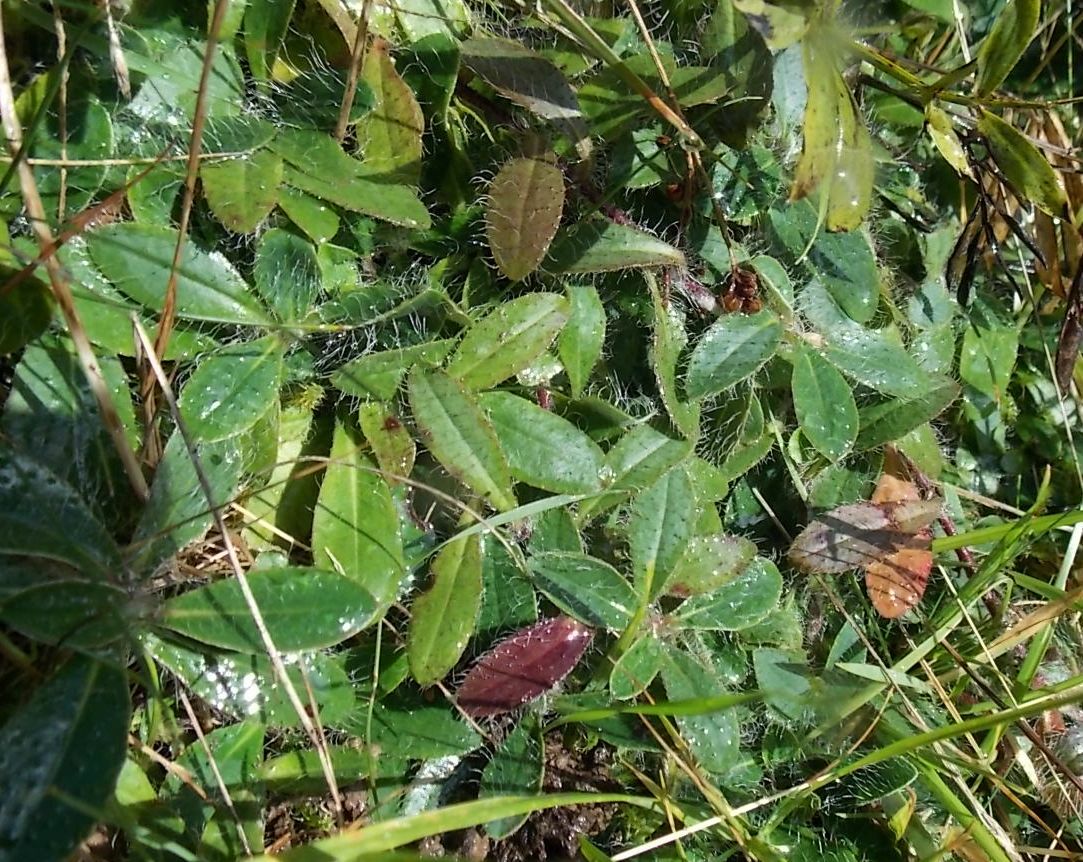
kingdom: Plantae
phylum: Tracheophyta
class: Magnoliopsida
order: Asterales
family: Asteraceae
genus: Pilosella
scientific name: Pilosella officinarum
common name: Mouse-ear hawkweed
